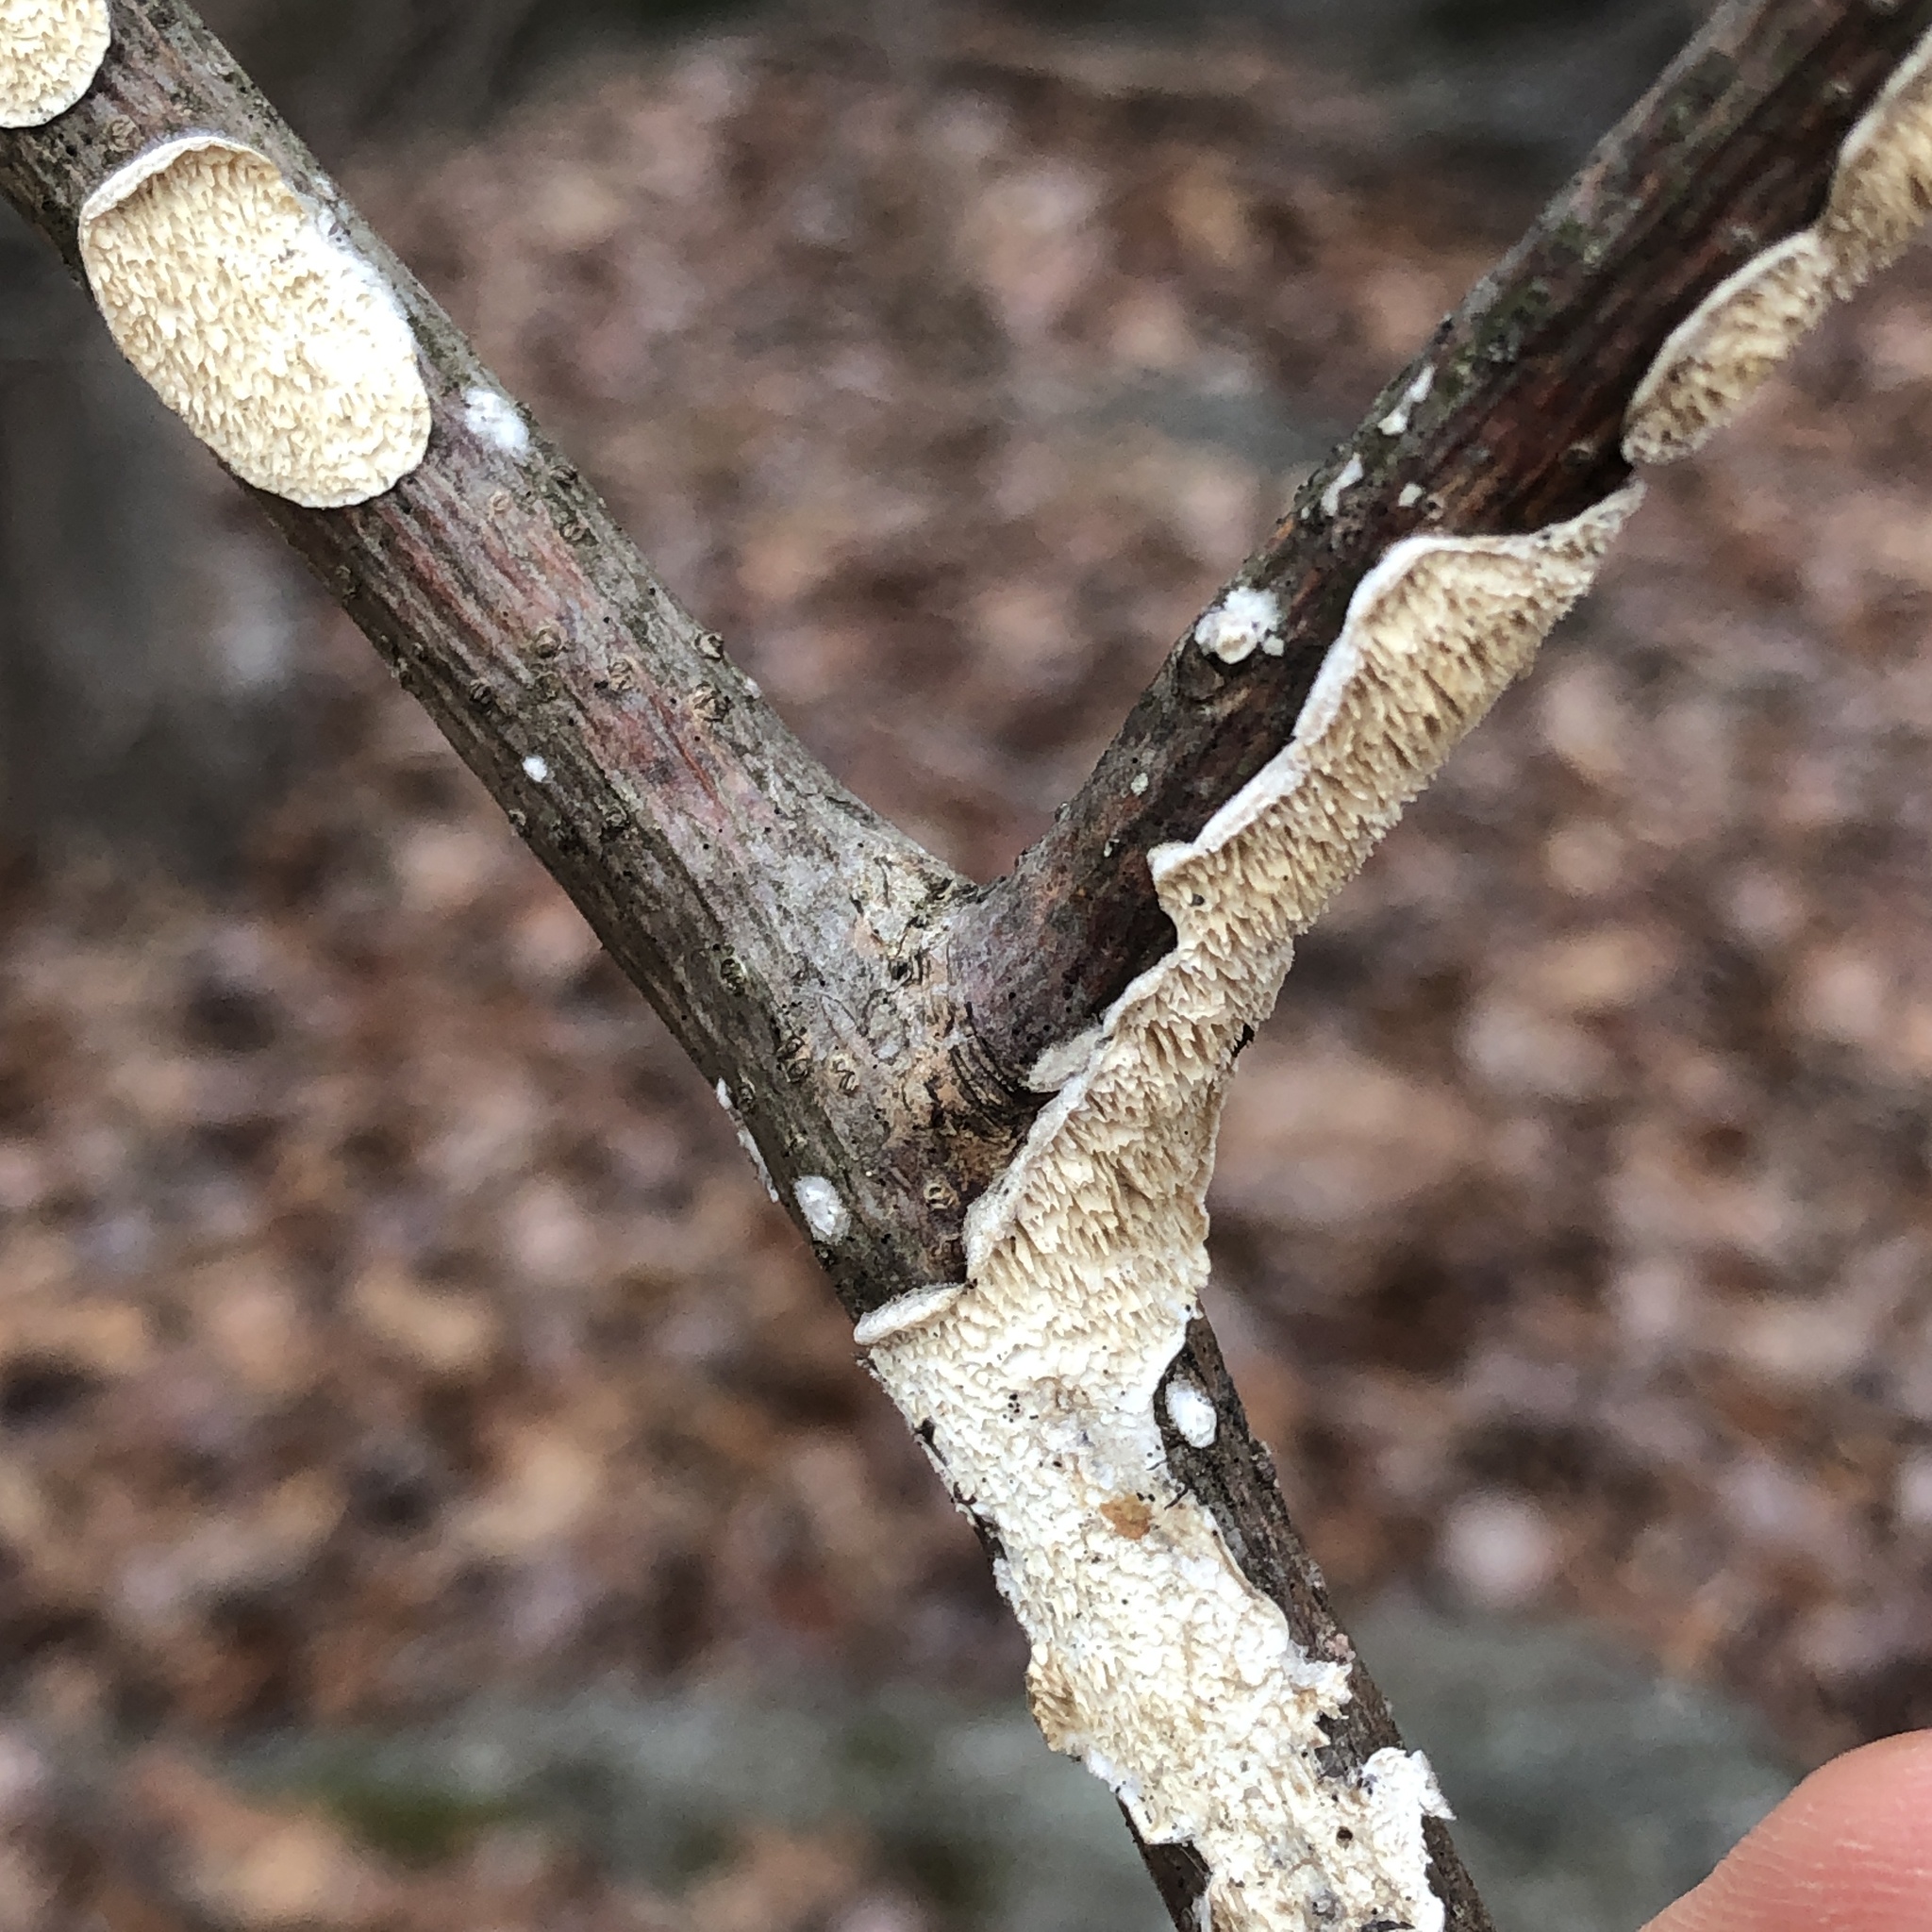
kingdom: Fungi
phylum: Basidiomycota
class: Agaricomycetes
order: Polyporales
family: Irpicaceae
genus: Irpex
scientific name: Irpex lacteus
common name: Milk-white toothed polypore
